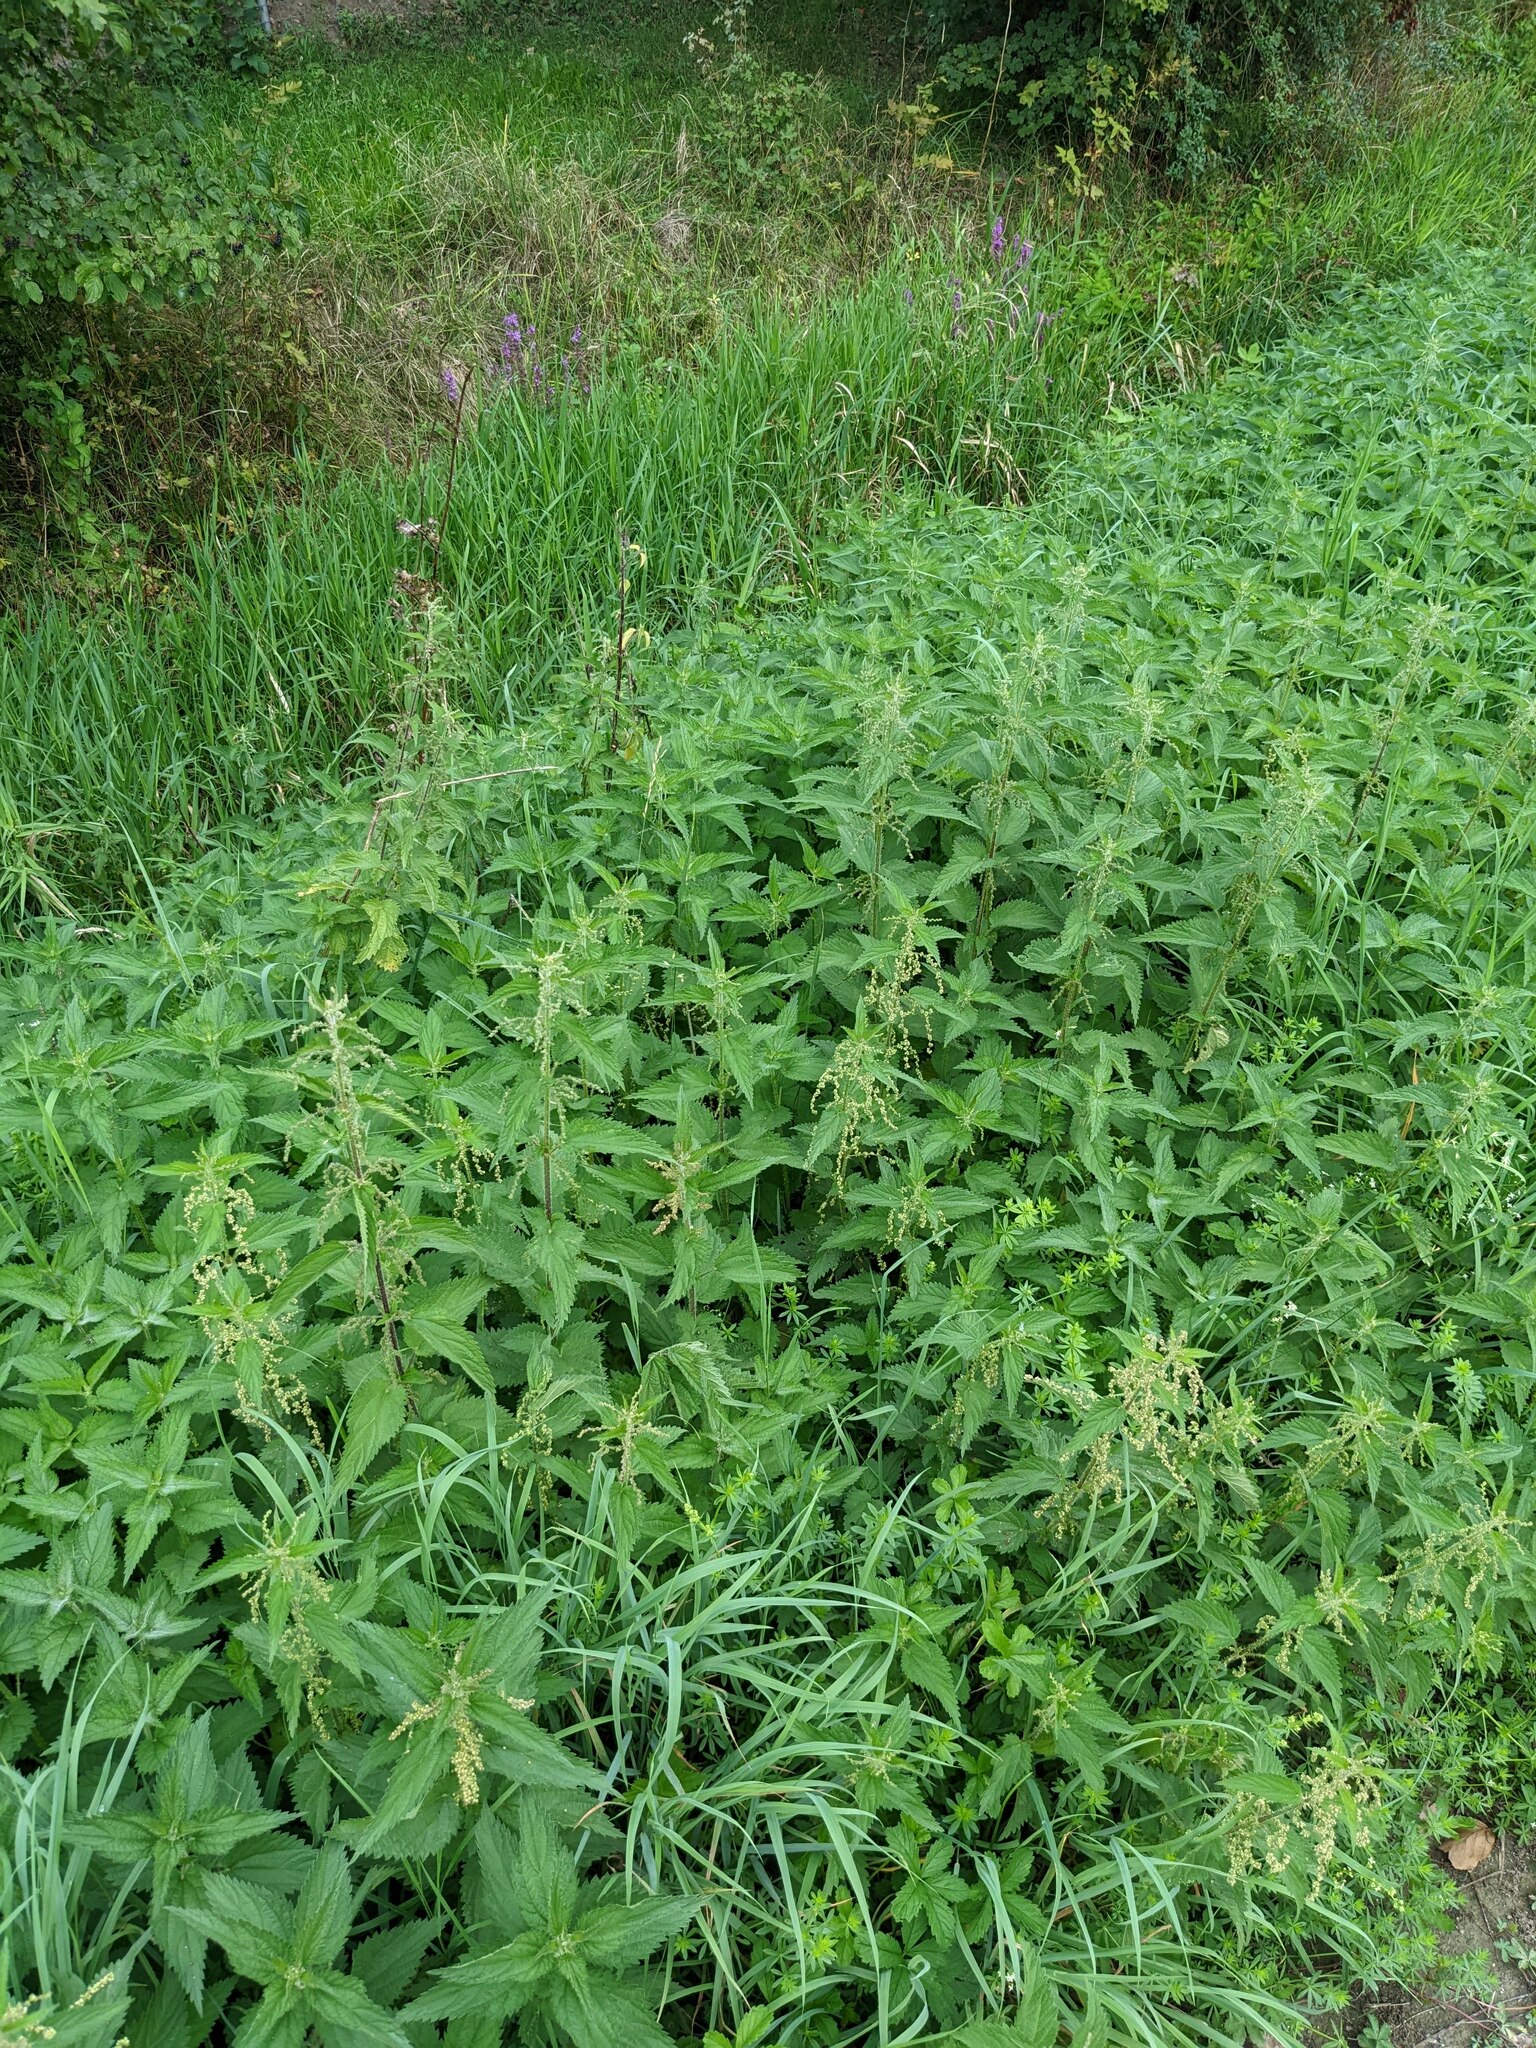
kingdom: Plantae
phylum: Tracheophyta
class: Magnoliopsida
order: Rosales
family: Urticaceae
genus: Urtica
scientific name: Urtica dioica
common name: Common nettle
